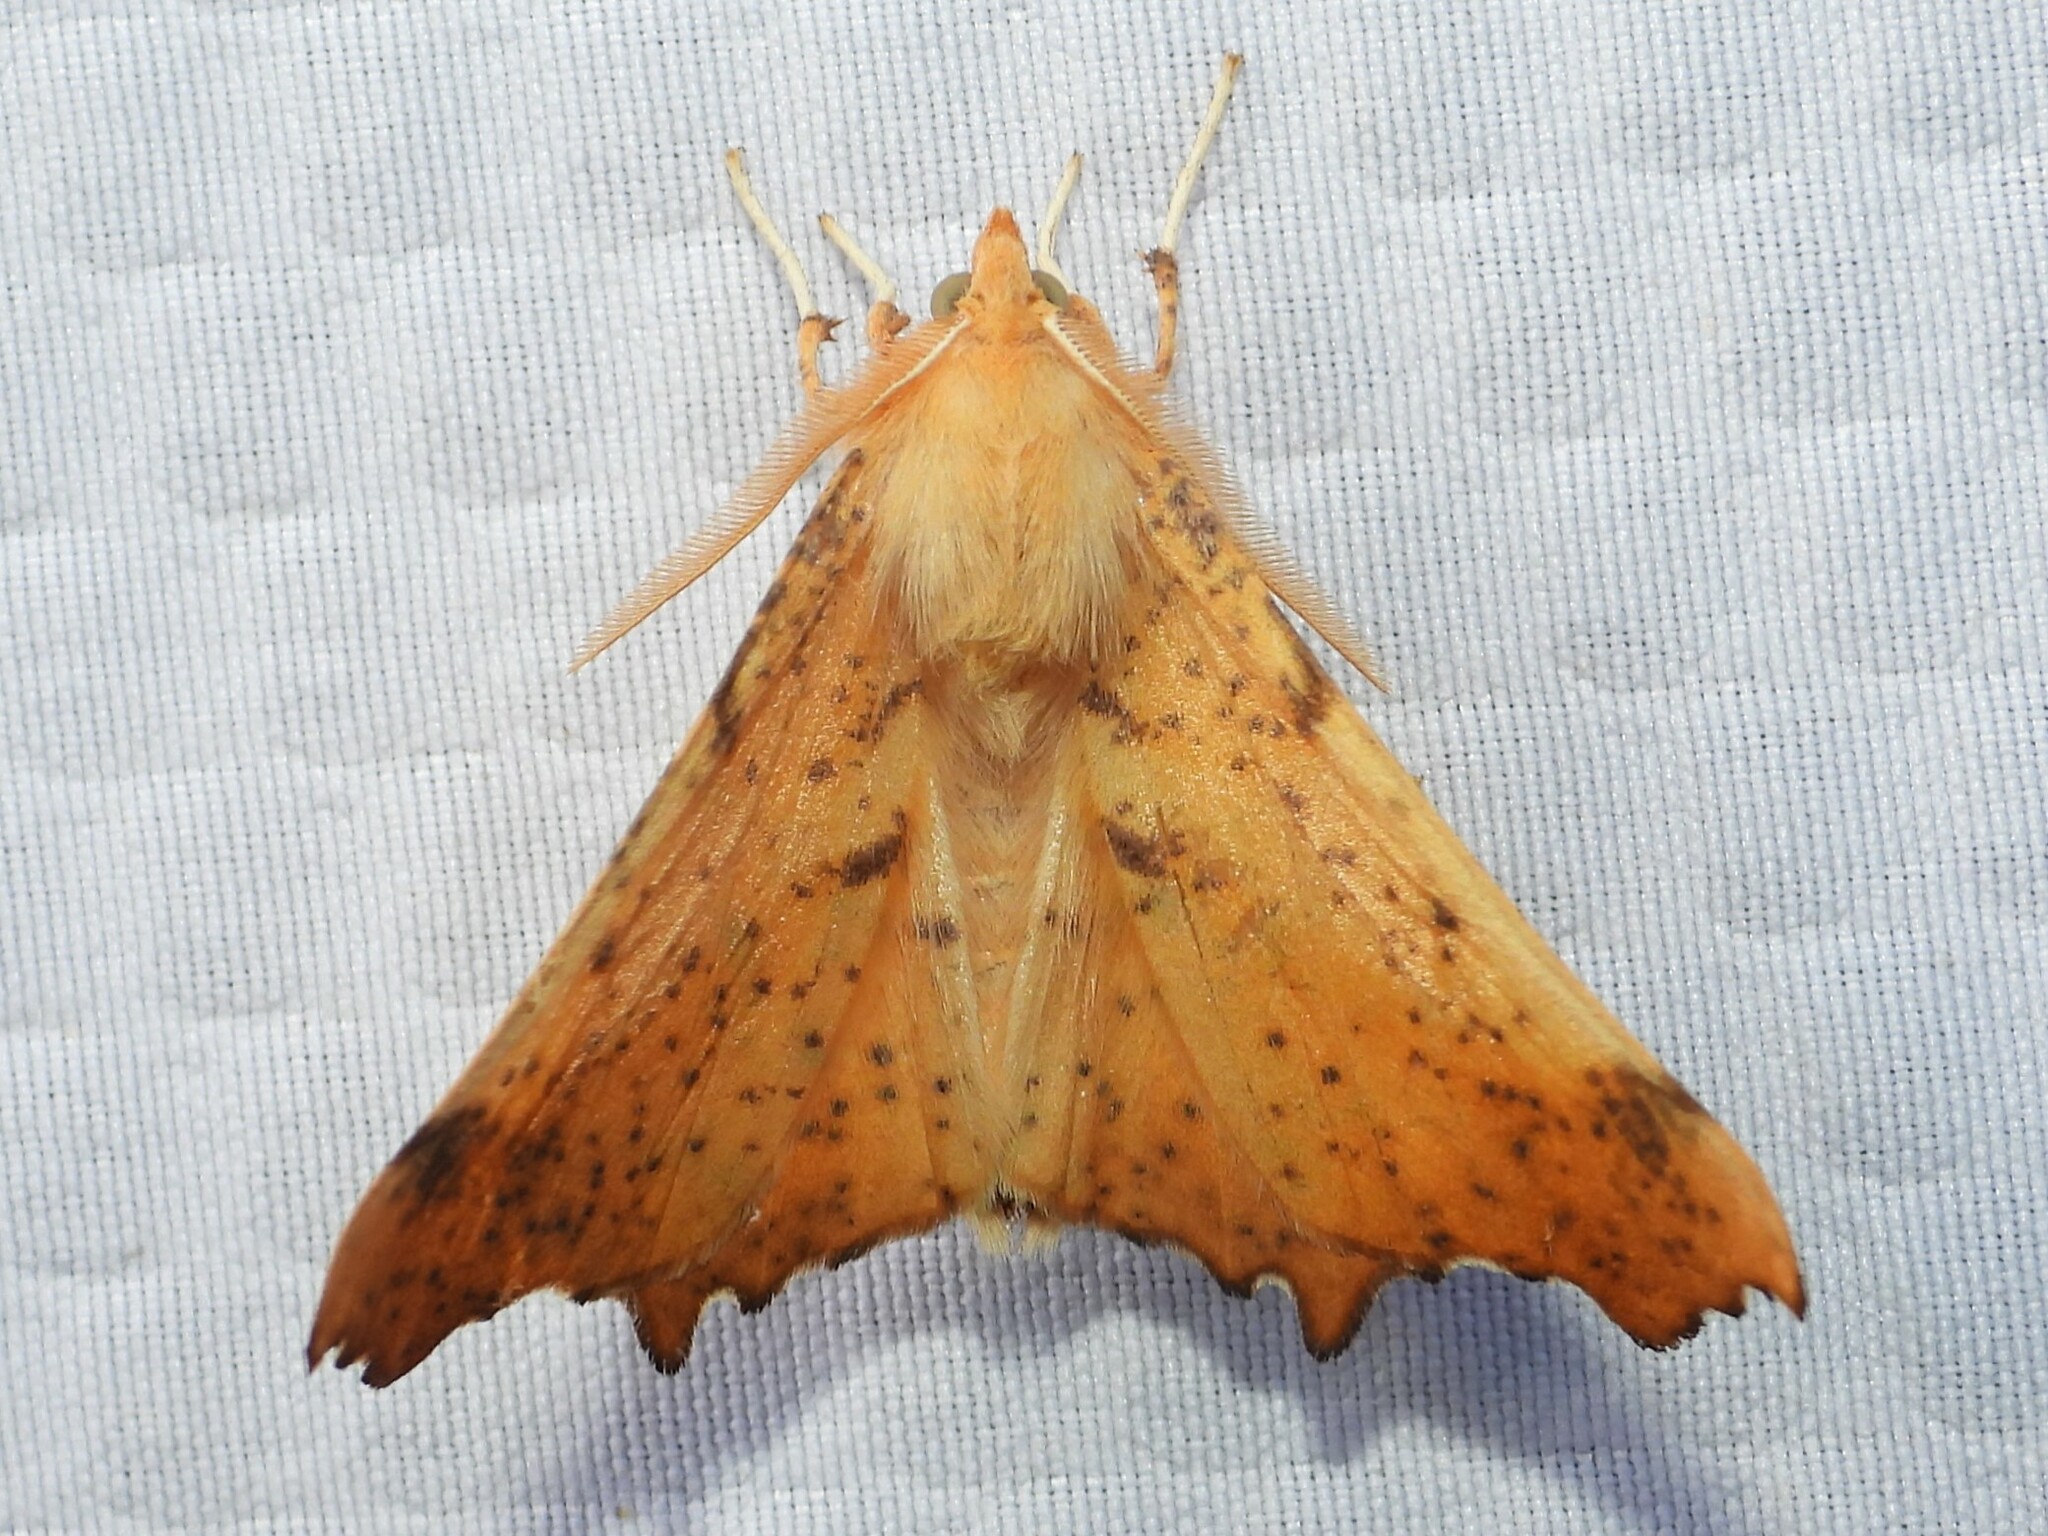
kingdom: Animalia
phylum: Arthropoda
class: Insecta
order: Lepidoptera
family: Geometridae
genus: Ennomos
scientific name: Ennomos magnaria
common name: Maple spanworm
